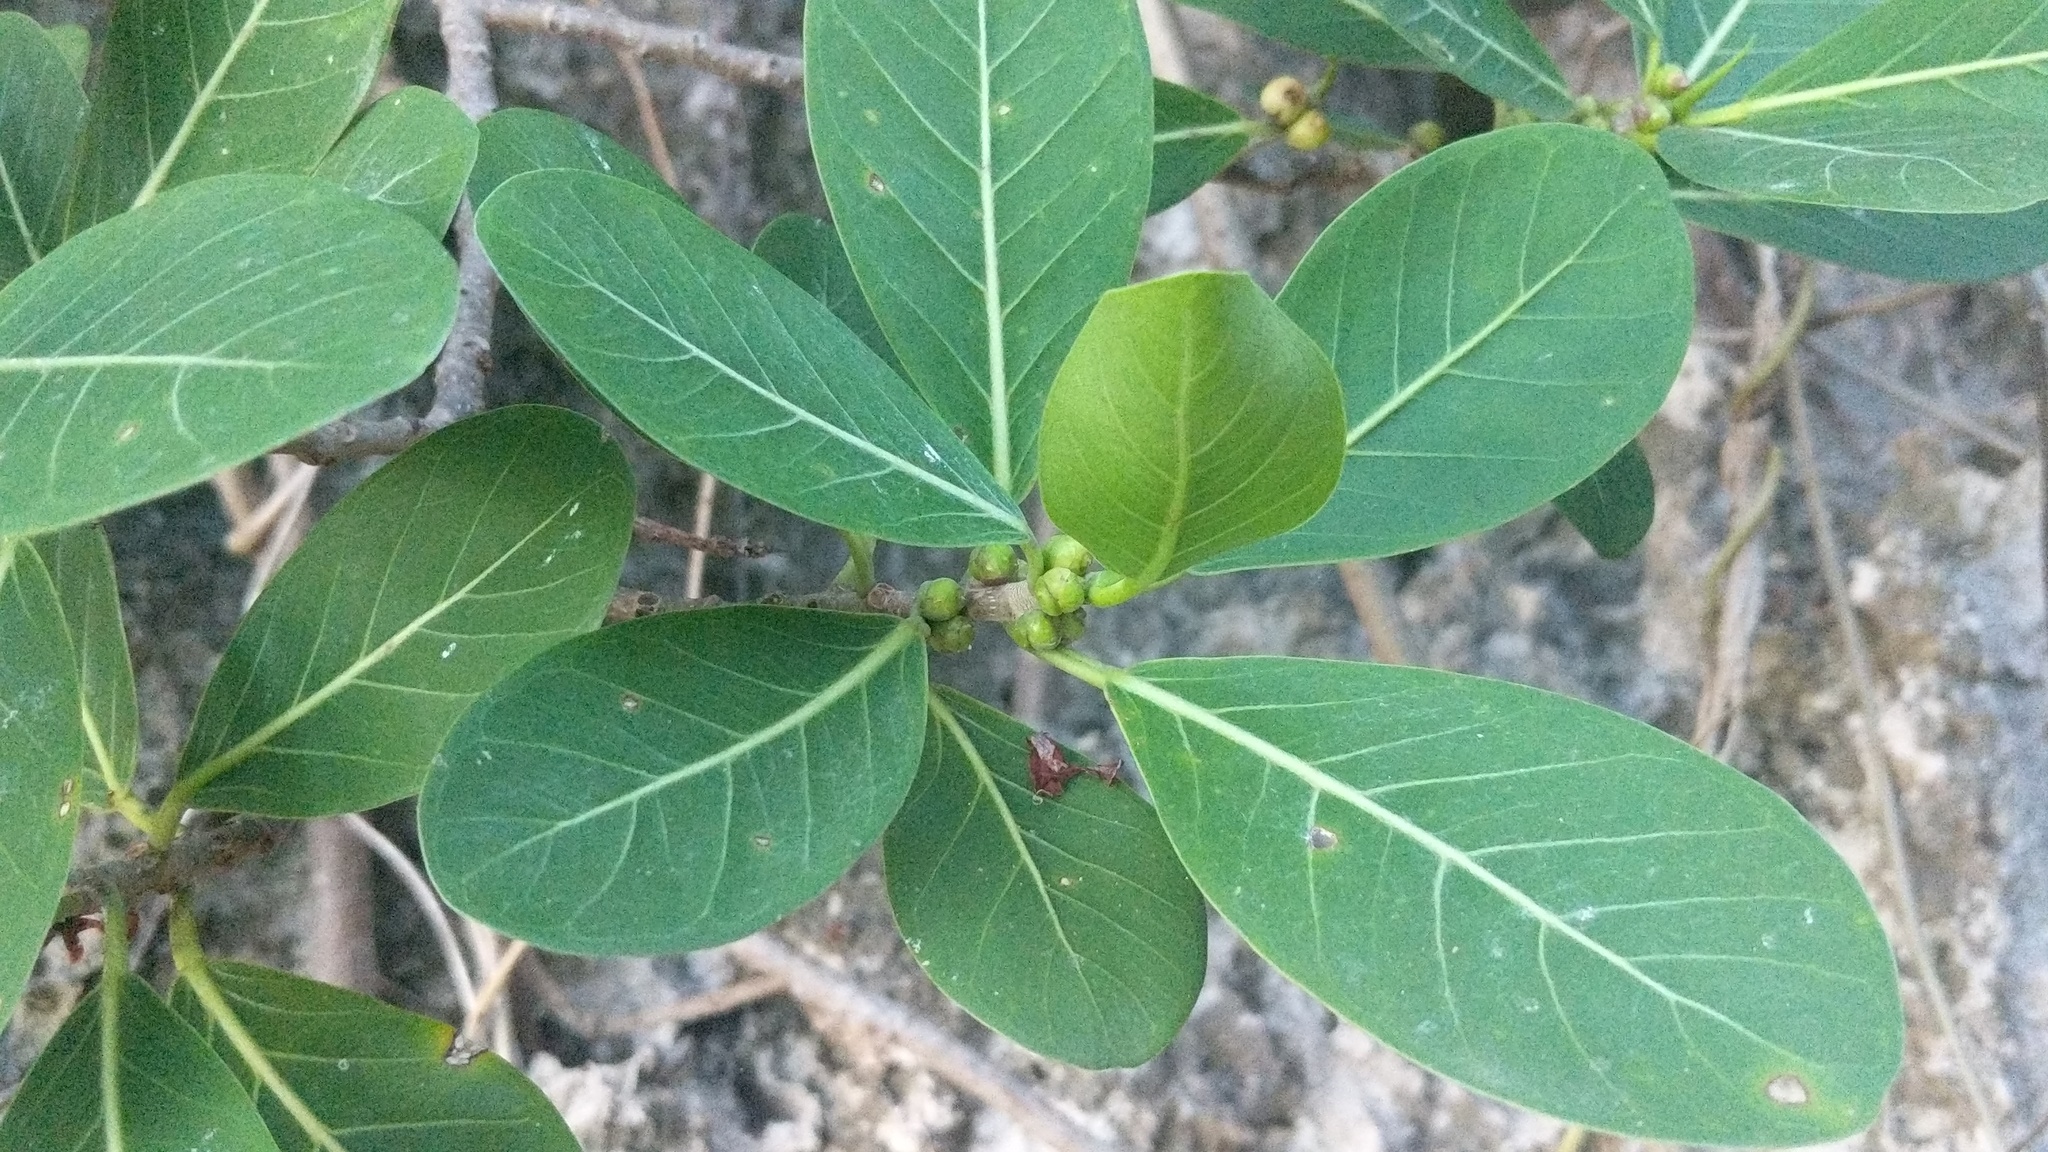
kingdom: Plantae
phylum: Tracheophyta
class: Magnoliopsida
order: Rosales
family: Moraceae
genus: Ficus
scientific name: Ficus aurea
